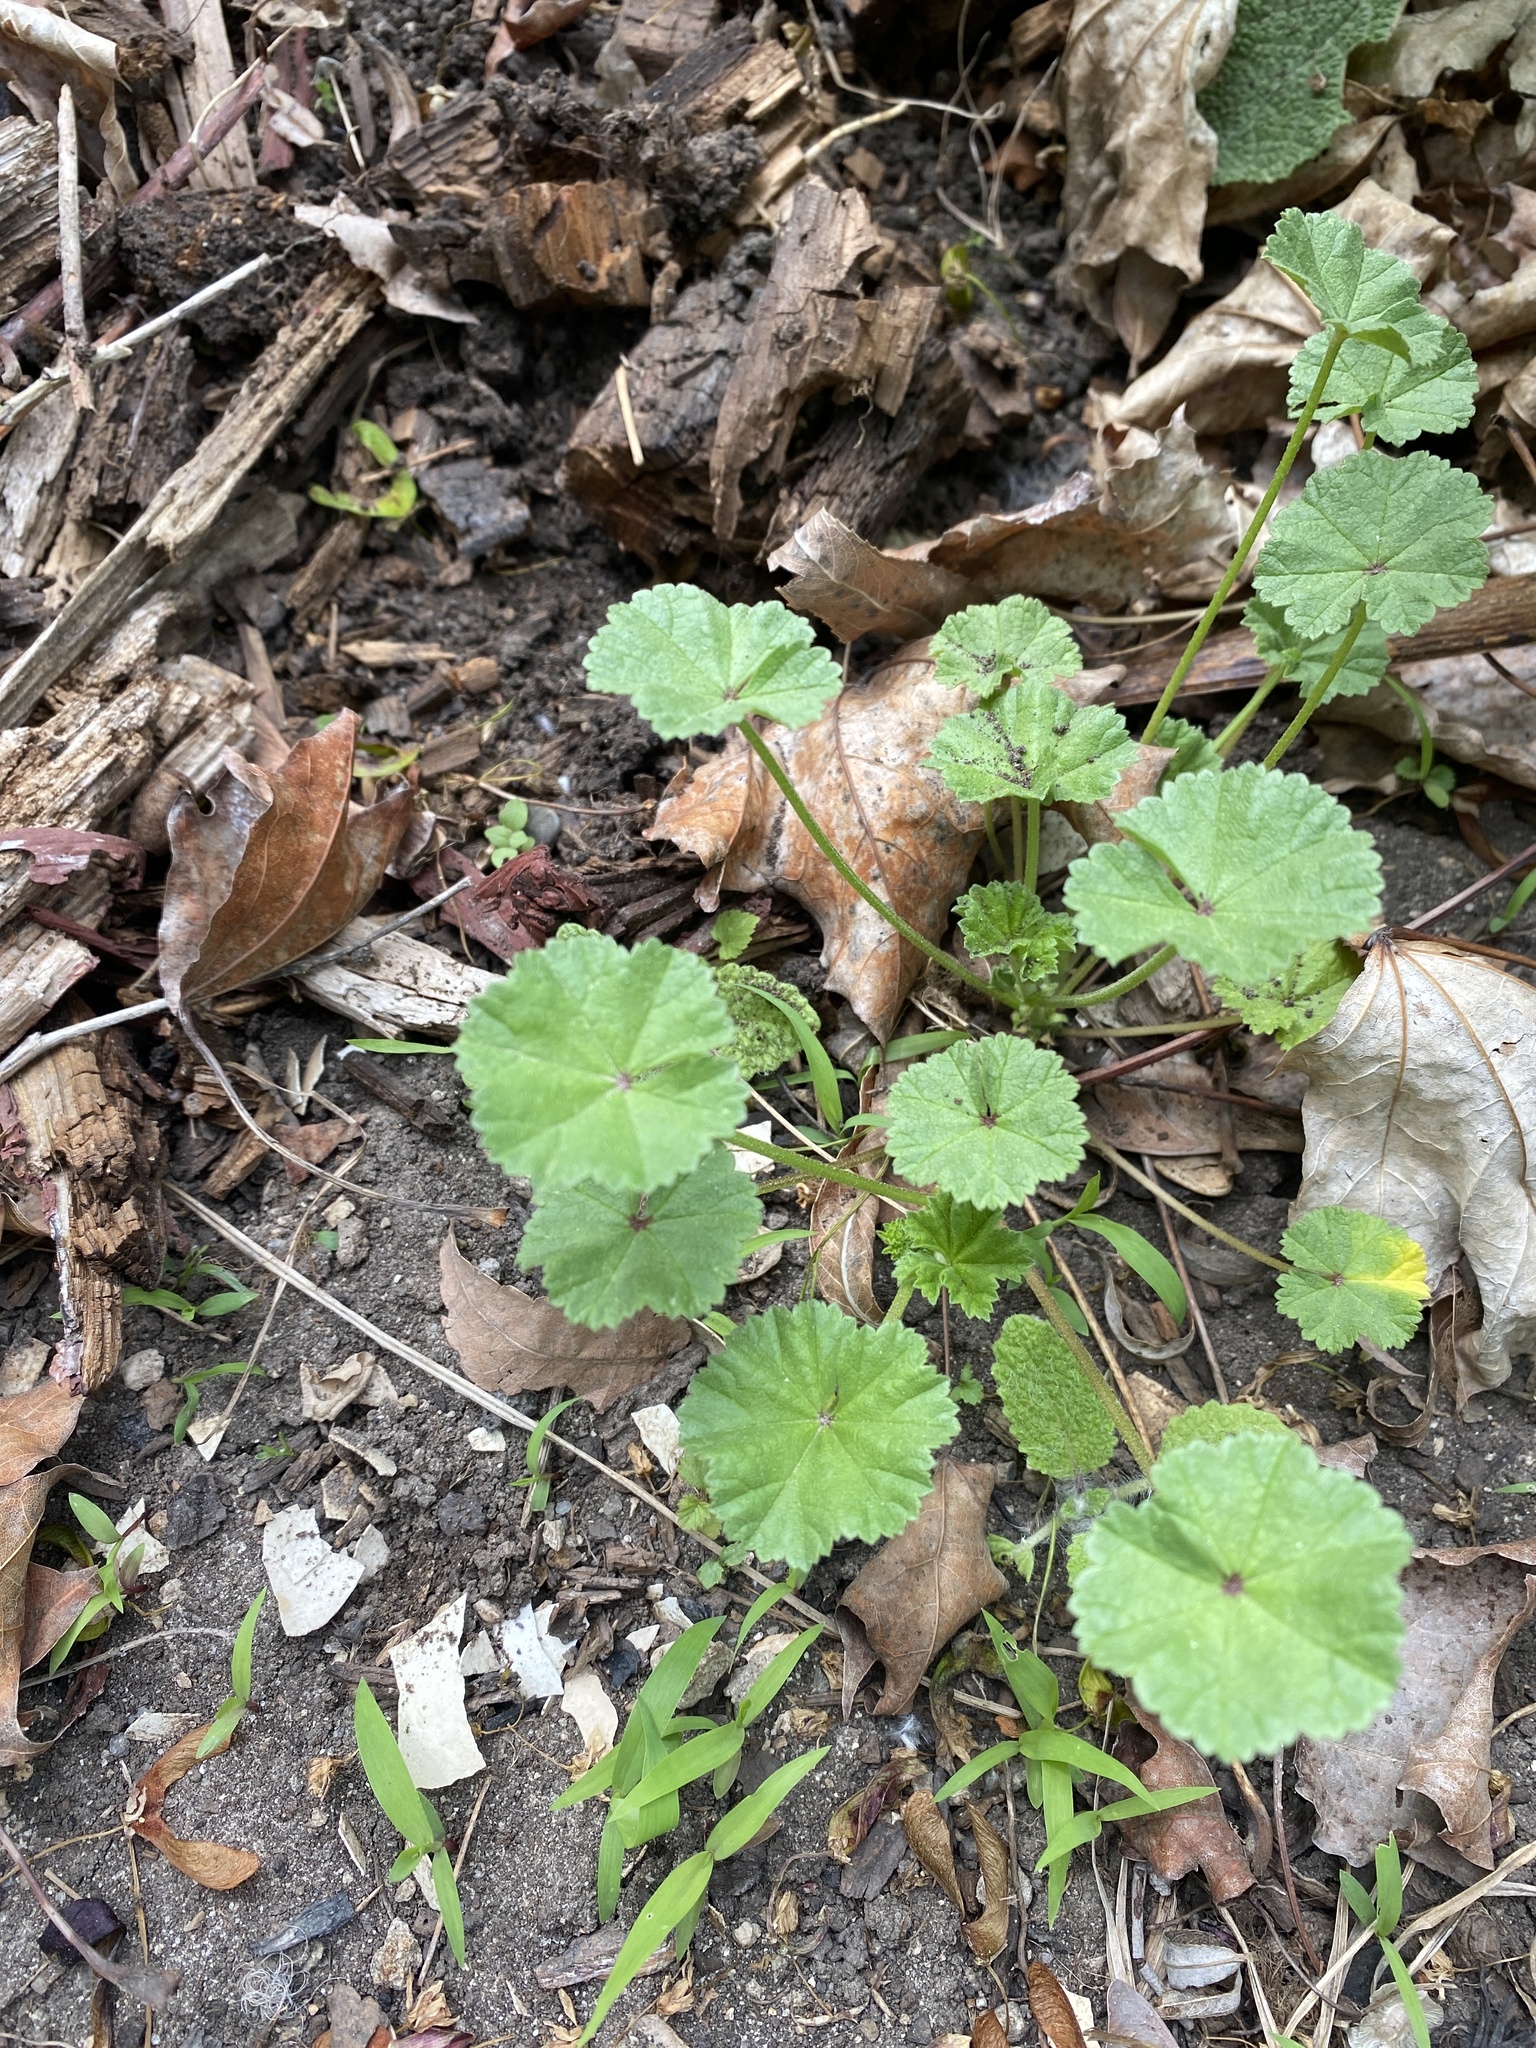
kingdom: Plantae
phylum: Tracheophyta
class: Magnoliopsida
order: Malvales
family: Malvaceae
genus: Malva
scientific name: Malva neglecta
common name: Common mallow
